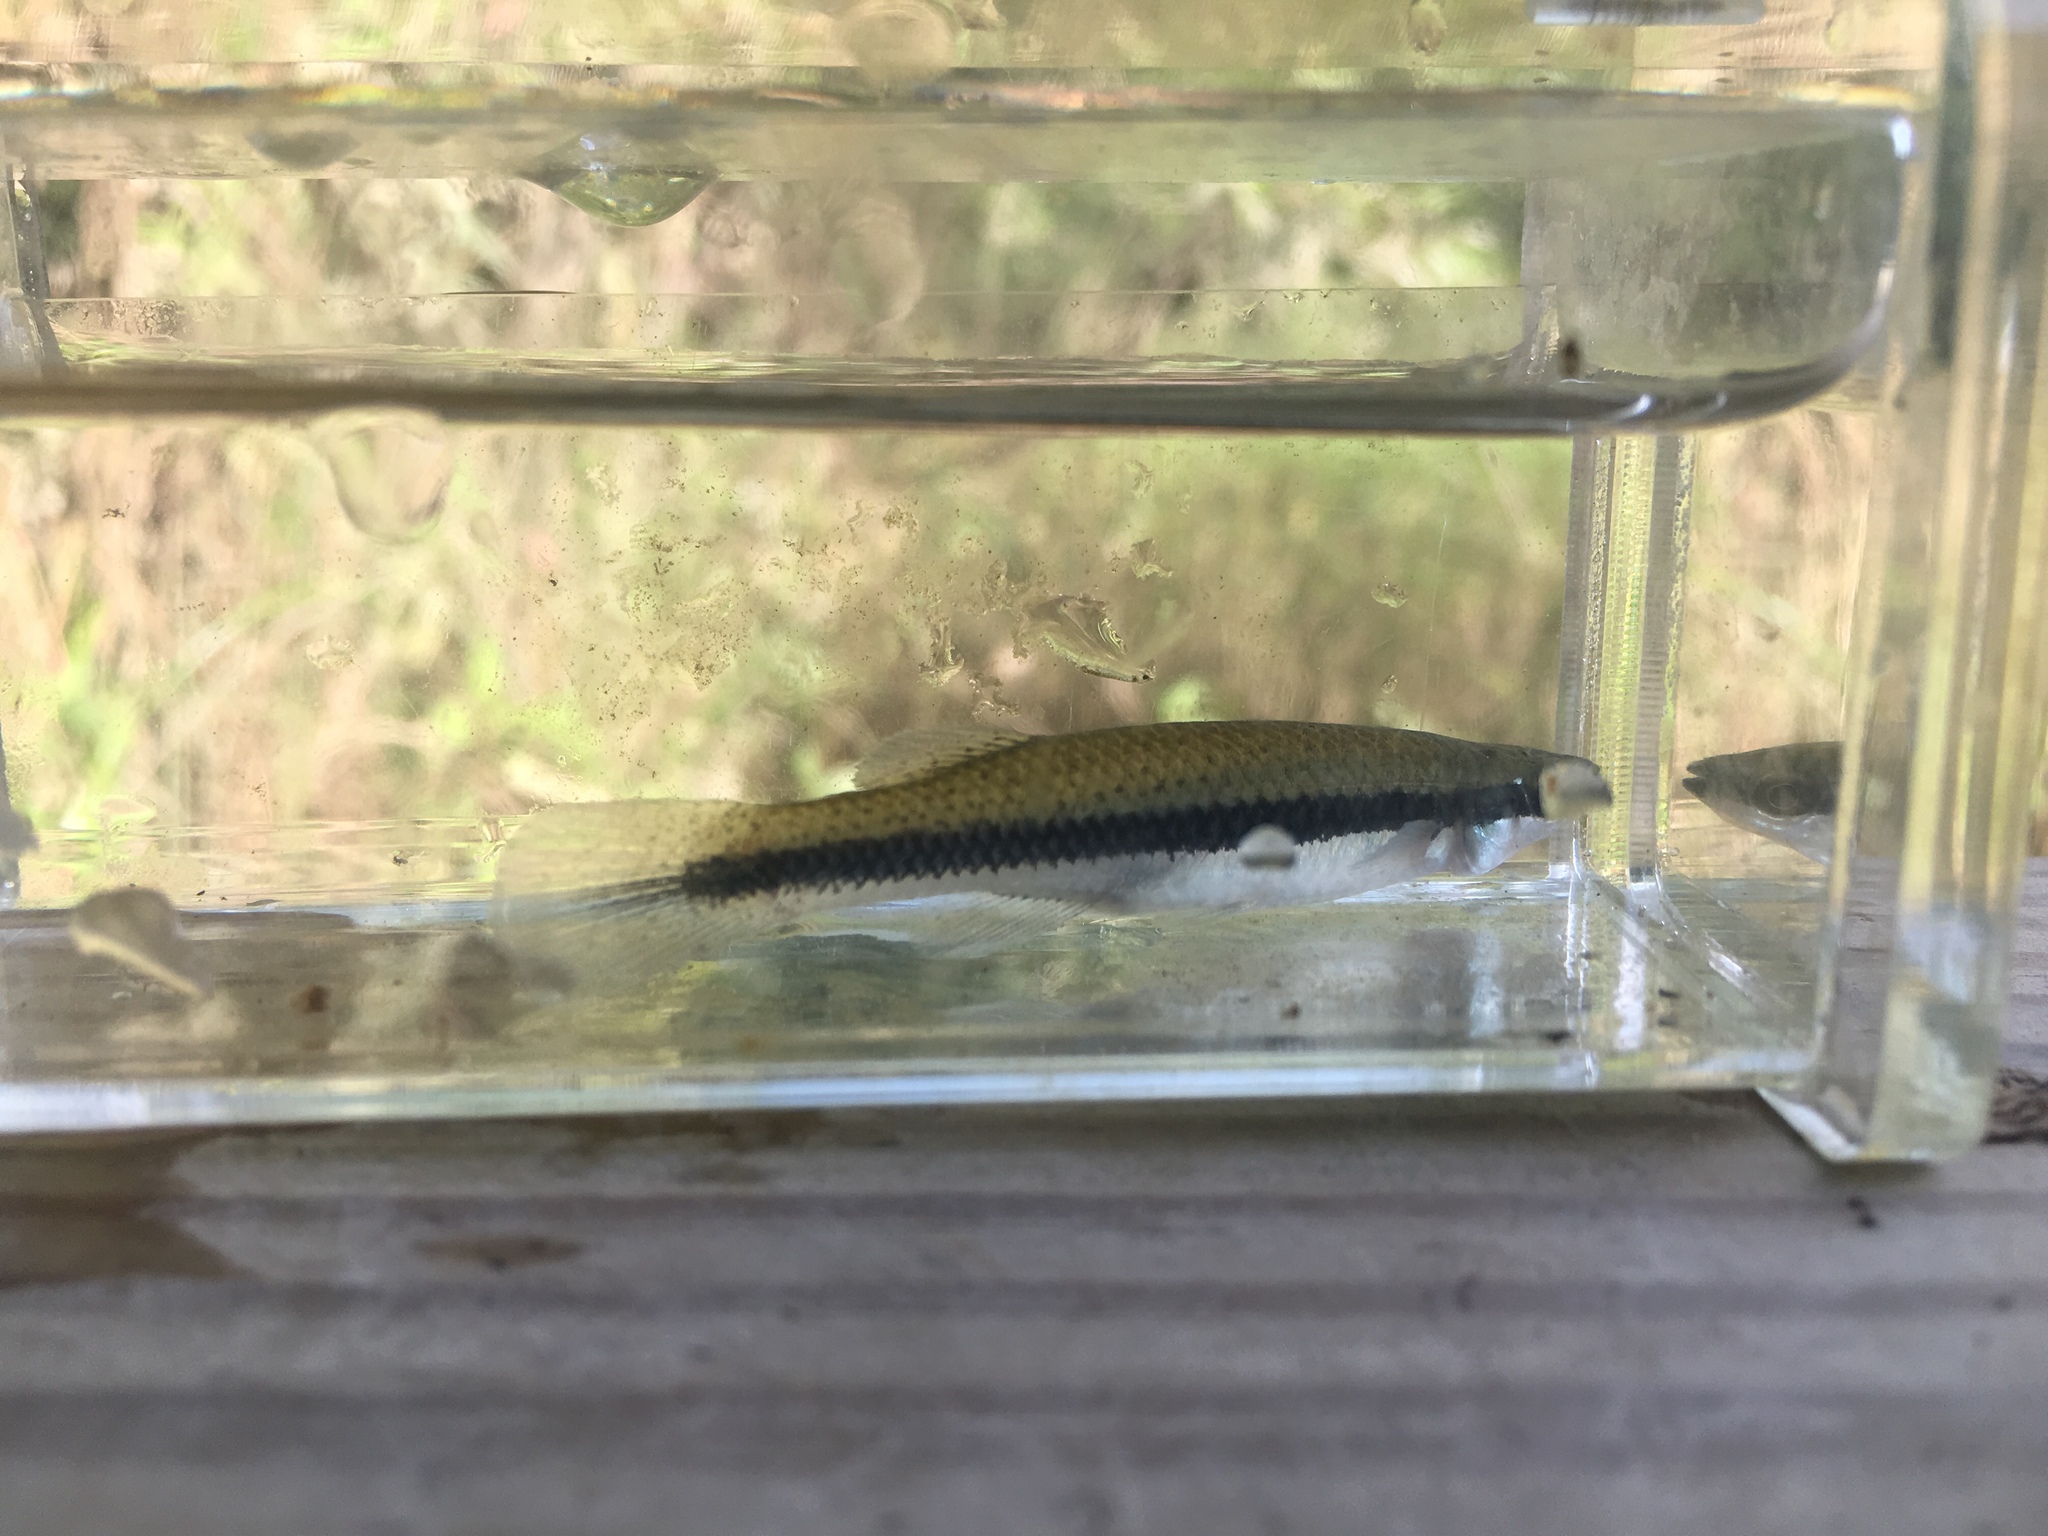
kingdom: Animalia
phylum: Chordata
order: Cyprinodontiformes
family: Fundulidae
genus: Fundulus
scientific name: Fundulus notatus
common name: Blackstripe topminnow
